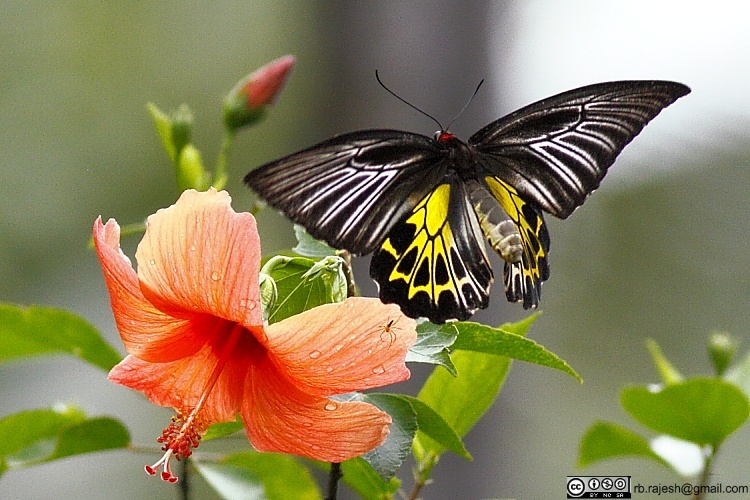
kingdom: Animalia
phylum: Arthropoda
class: Insecta
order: Lepidoptera
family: Papilionidae
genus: Troides
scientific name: Troides minos
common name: Malabar birdwing
